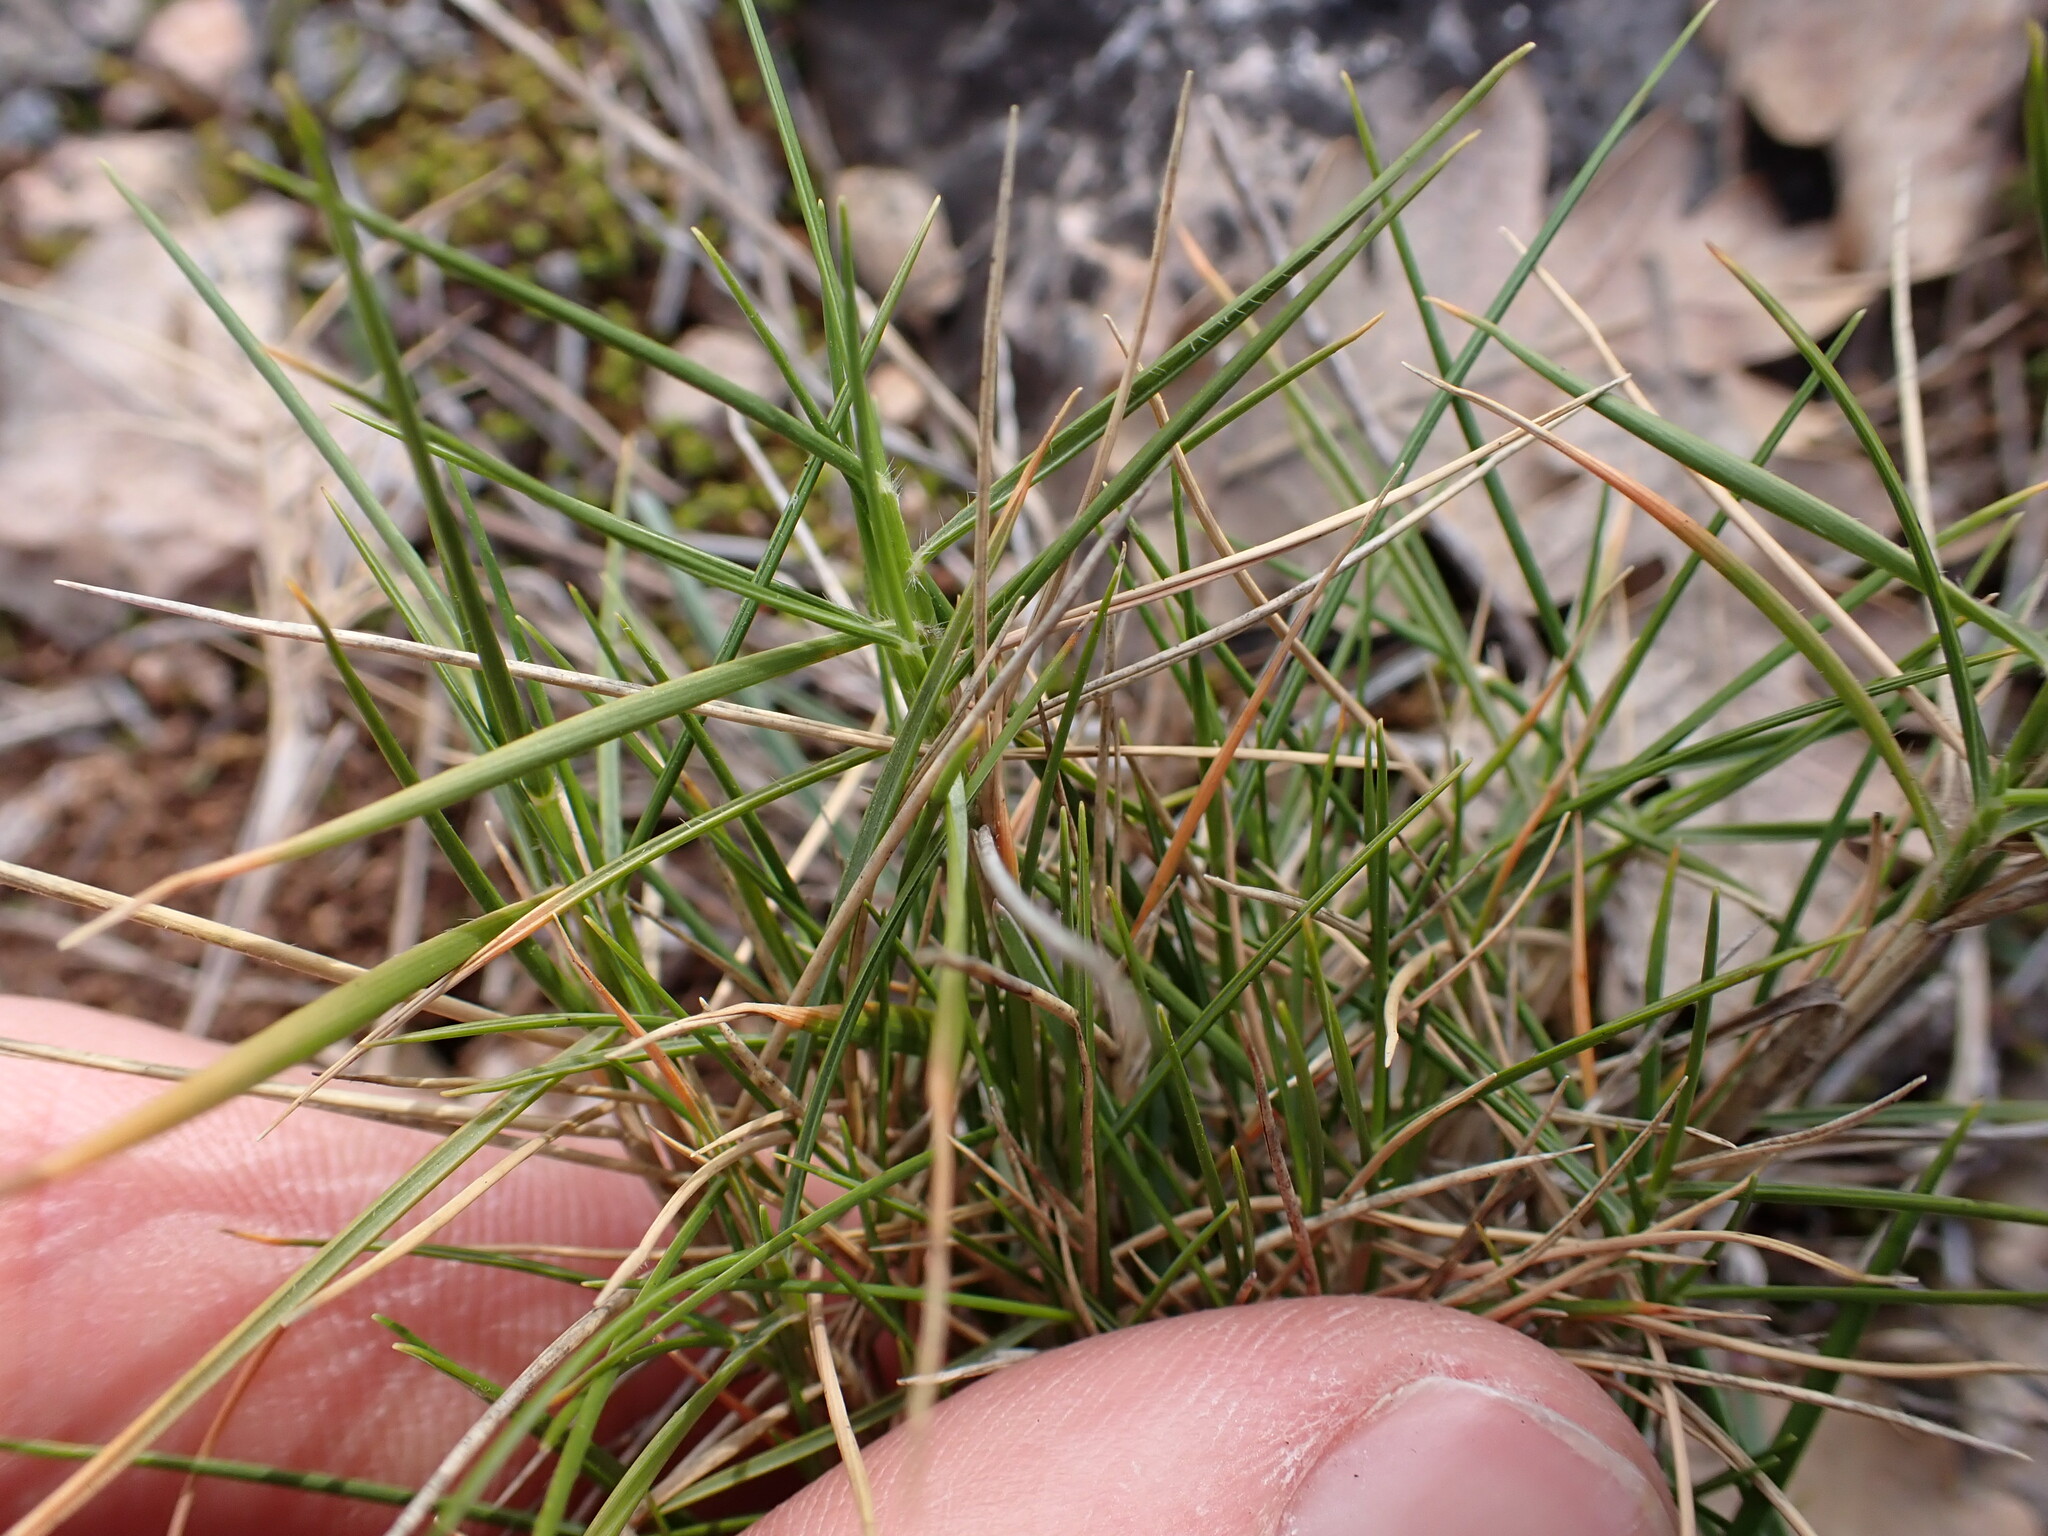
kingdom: Plantae
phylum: Tracheophyta
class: Liliopsida
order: Poales
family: Poaceae
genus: Brachypodium
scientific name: Brachypodium retusum
